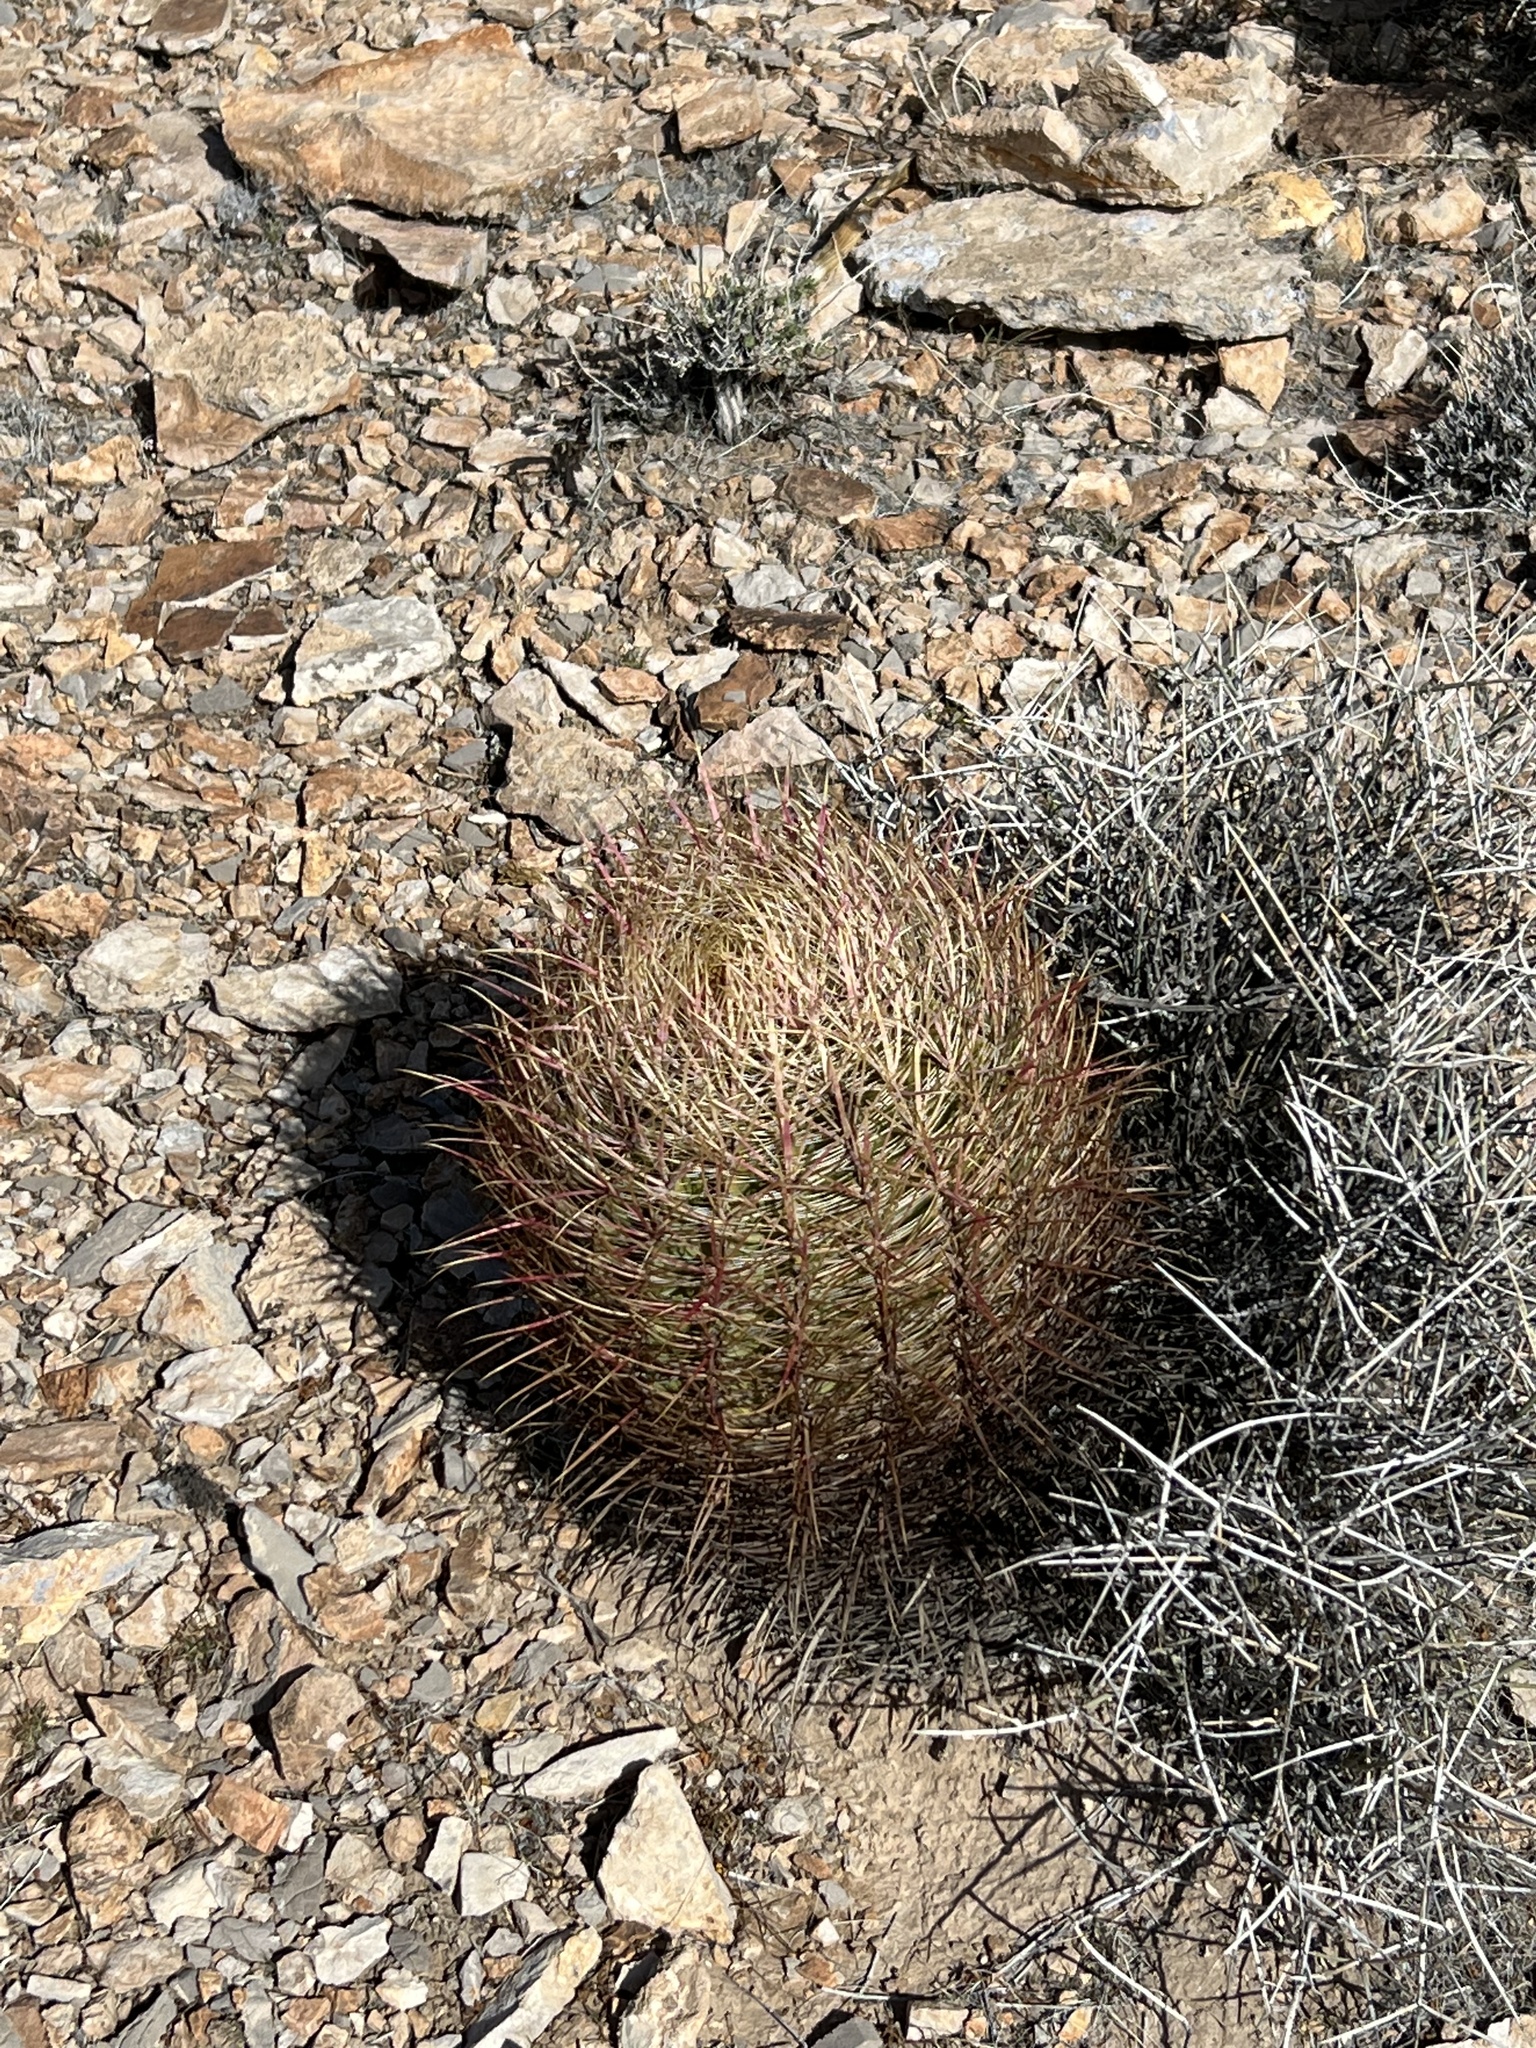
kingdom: Plantae
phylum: Tracheophyta
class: Magnoliopsida
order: Caryophyllales
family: Cactaceae
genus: Ferocactus
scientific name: Ferocactus cylindraceus
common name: California barrel cactus
